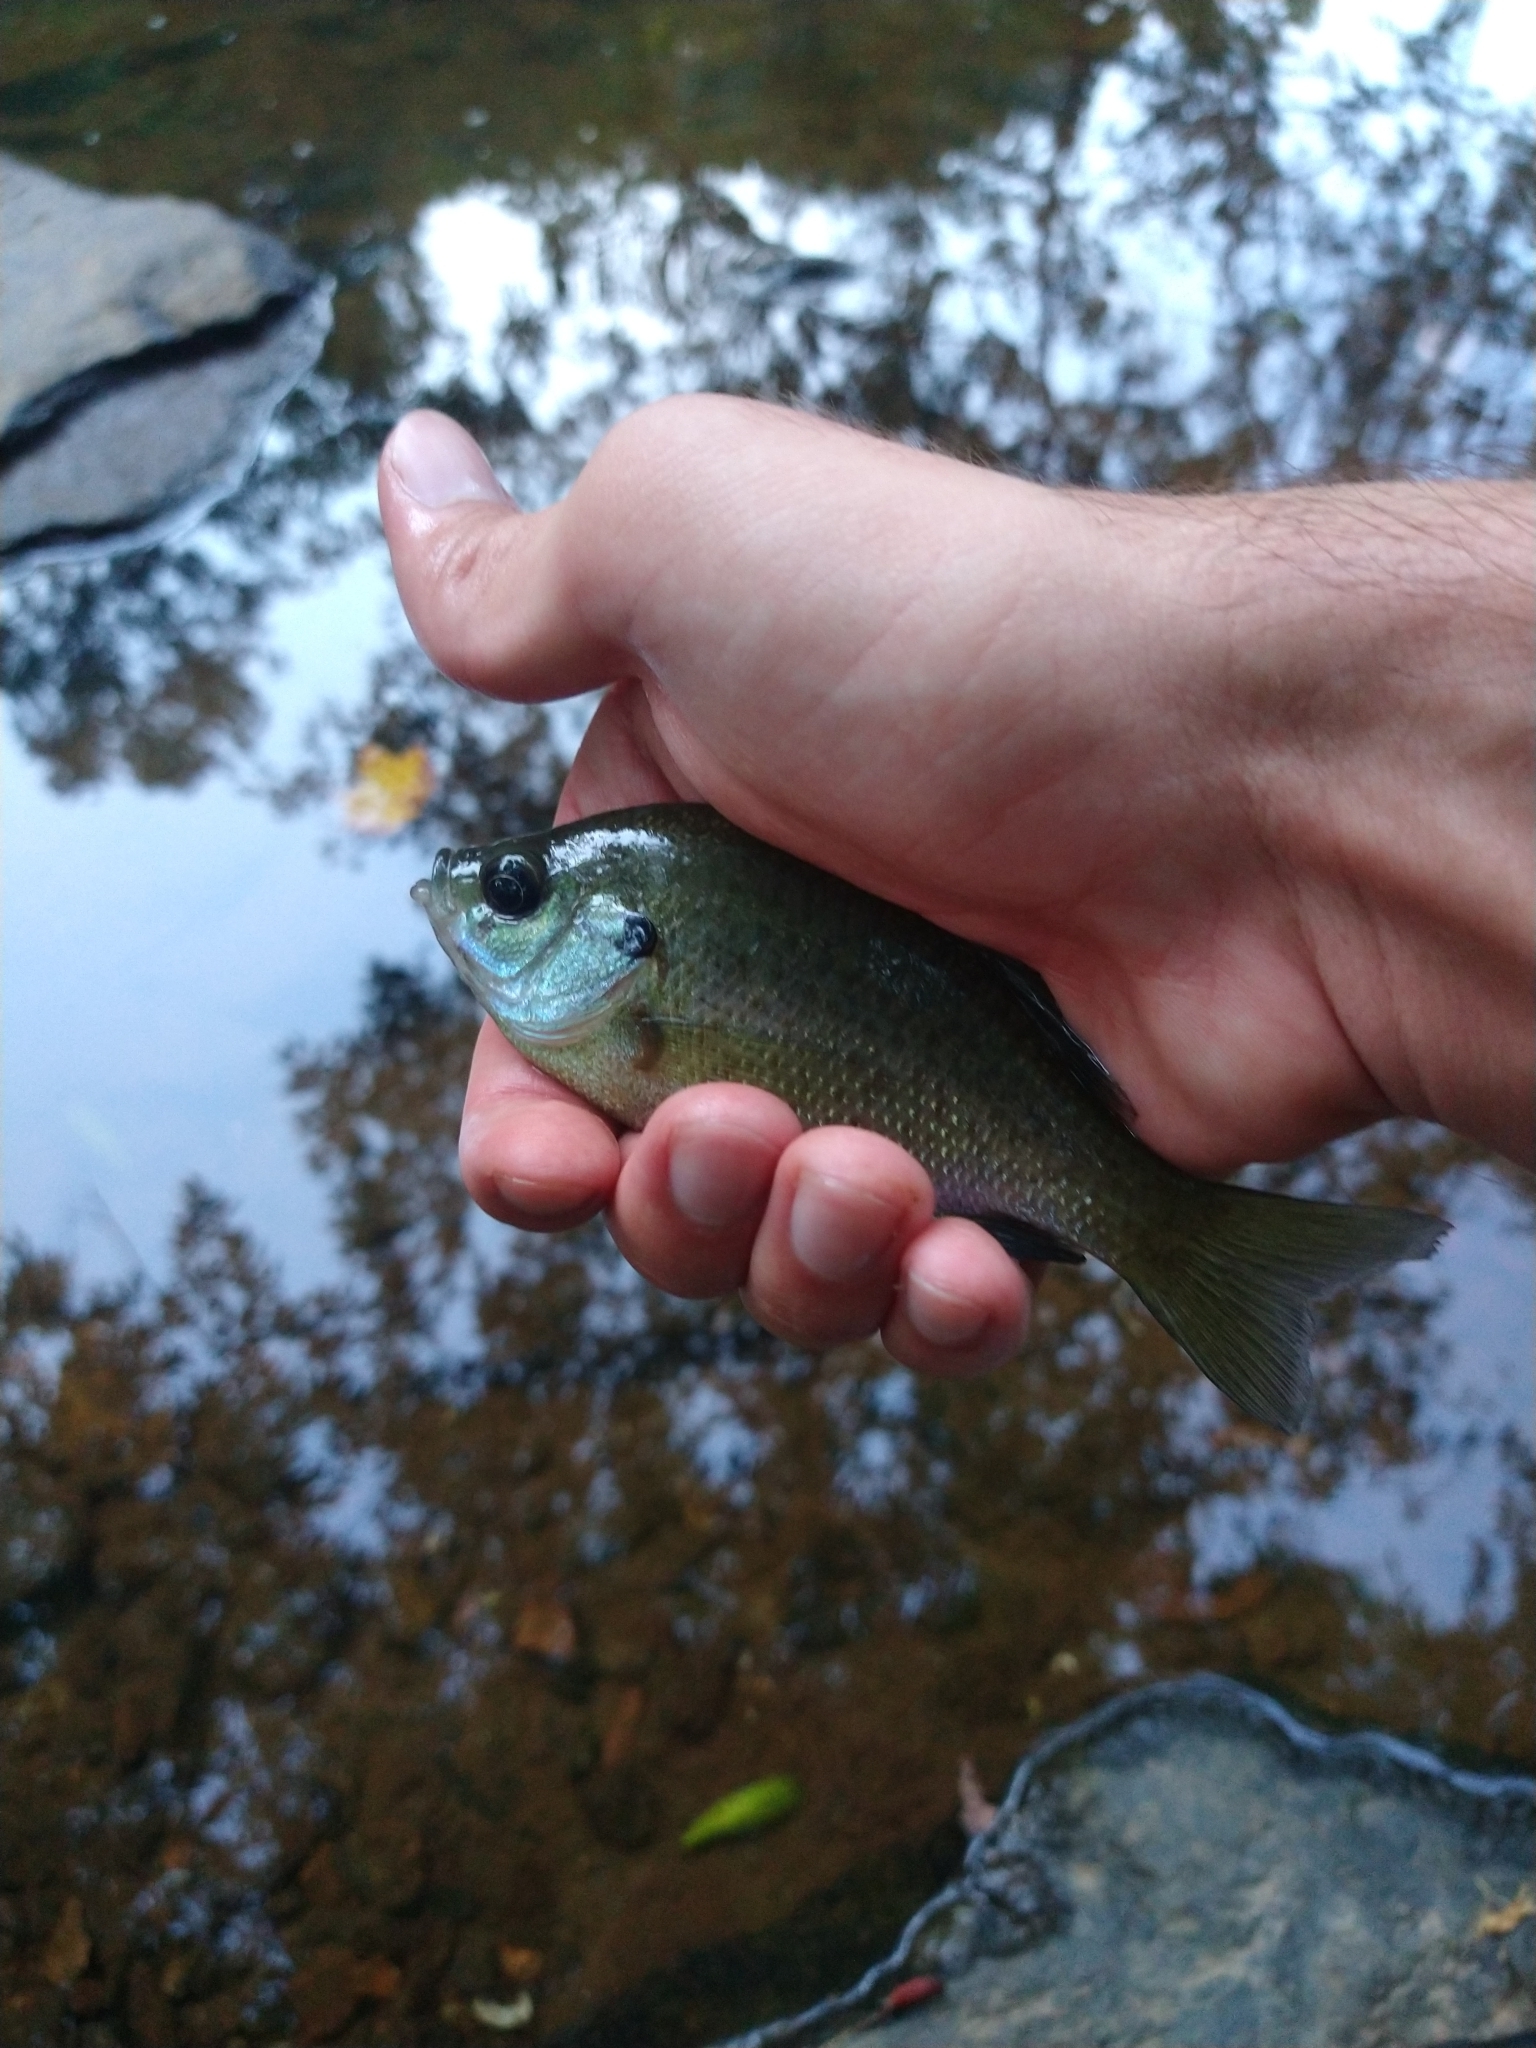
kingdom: Animalia
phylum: Chordata
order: Perciformes
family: Centrarchidae
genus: Lepomis
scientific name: Lepomis macrochirus
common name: Bluegill
